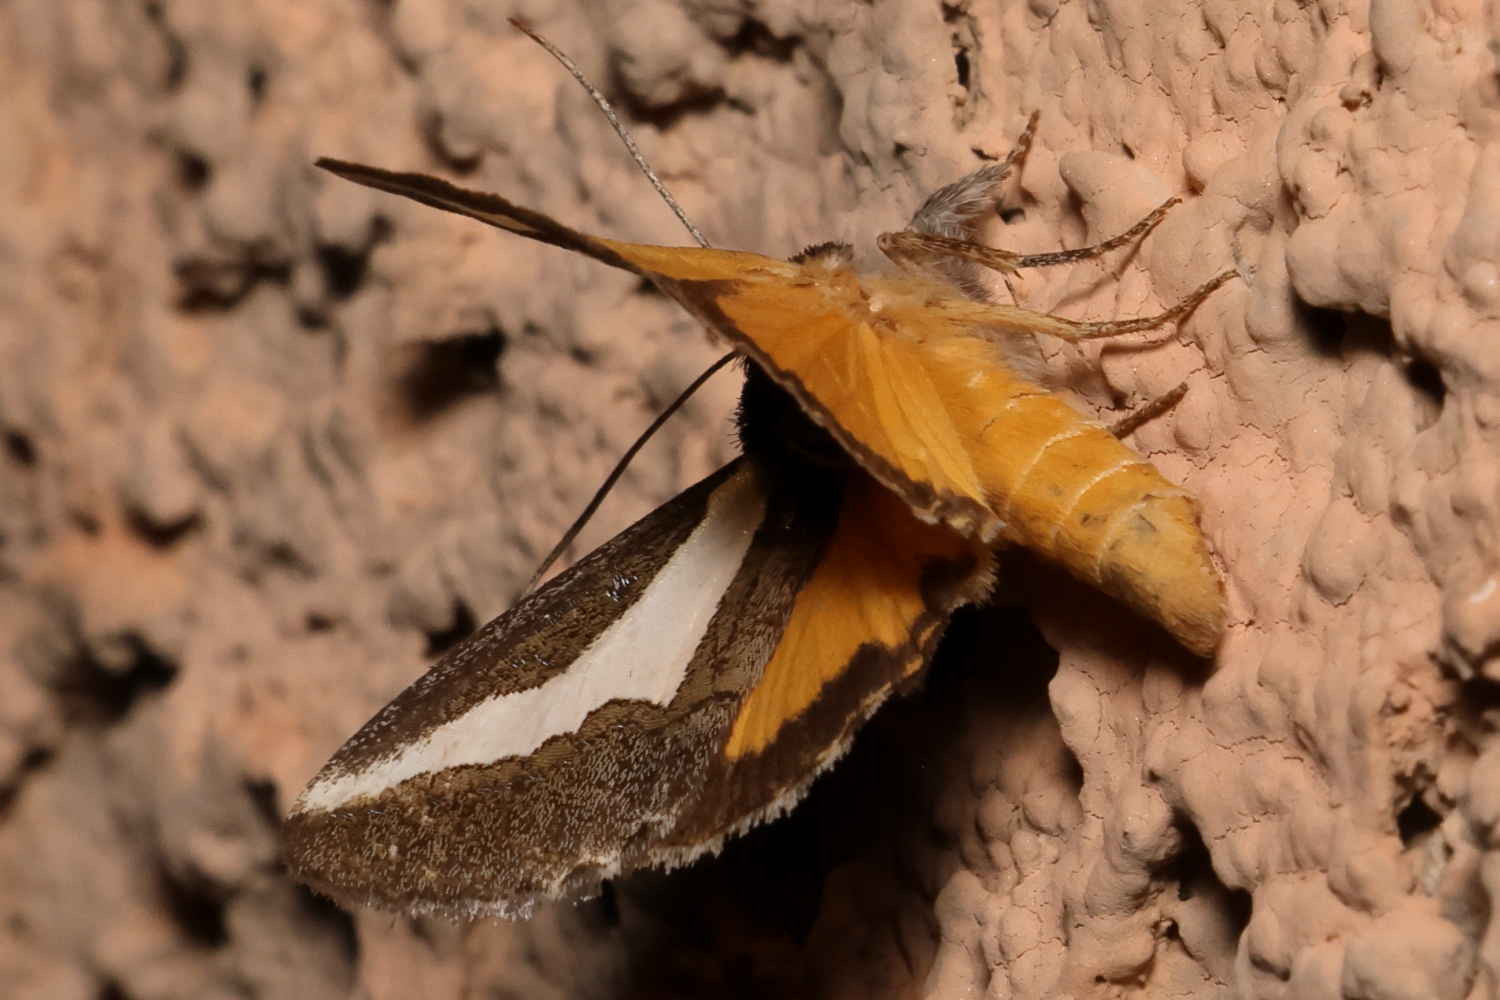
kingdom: Animalia
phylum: Arthropoda
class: Insecta
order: Lepidoptera
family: Noctuidae
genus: Euscirrhopterus
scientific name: Euscirrhopterus cosyra
